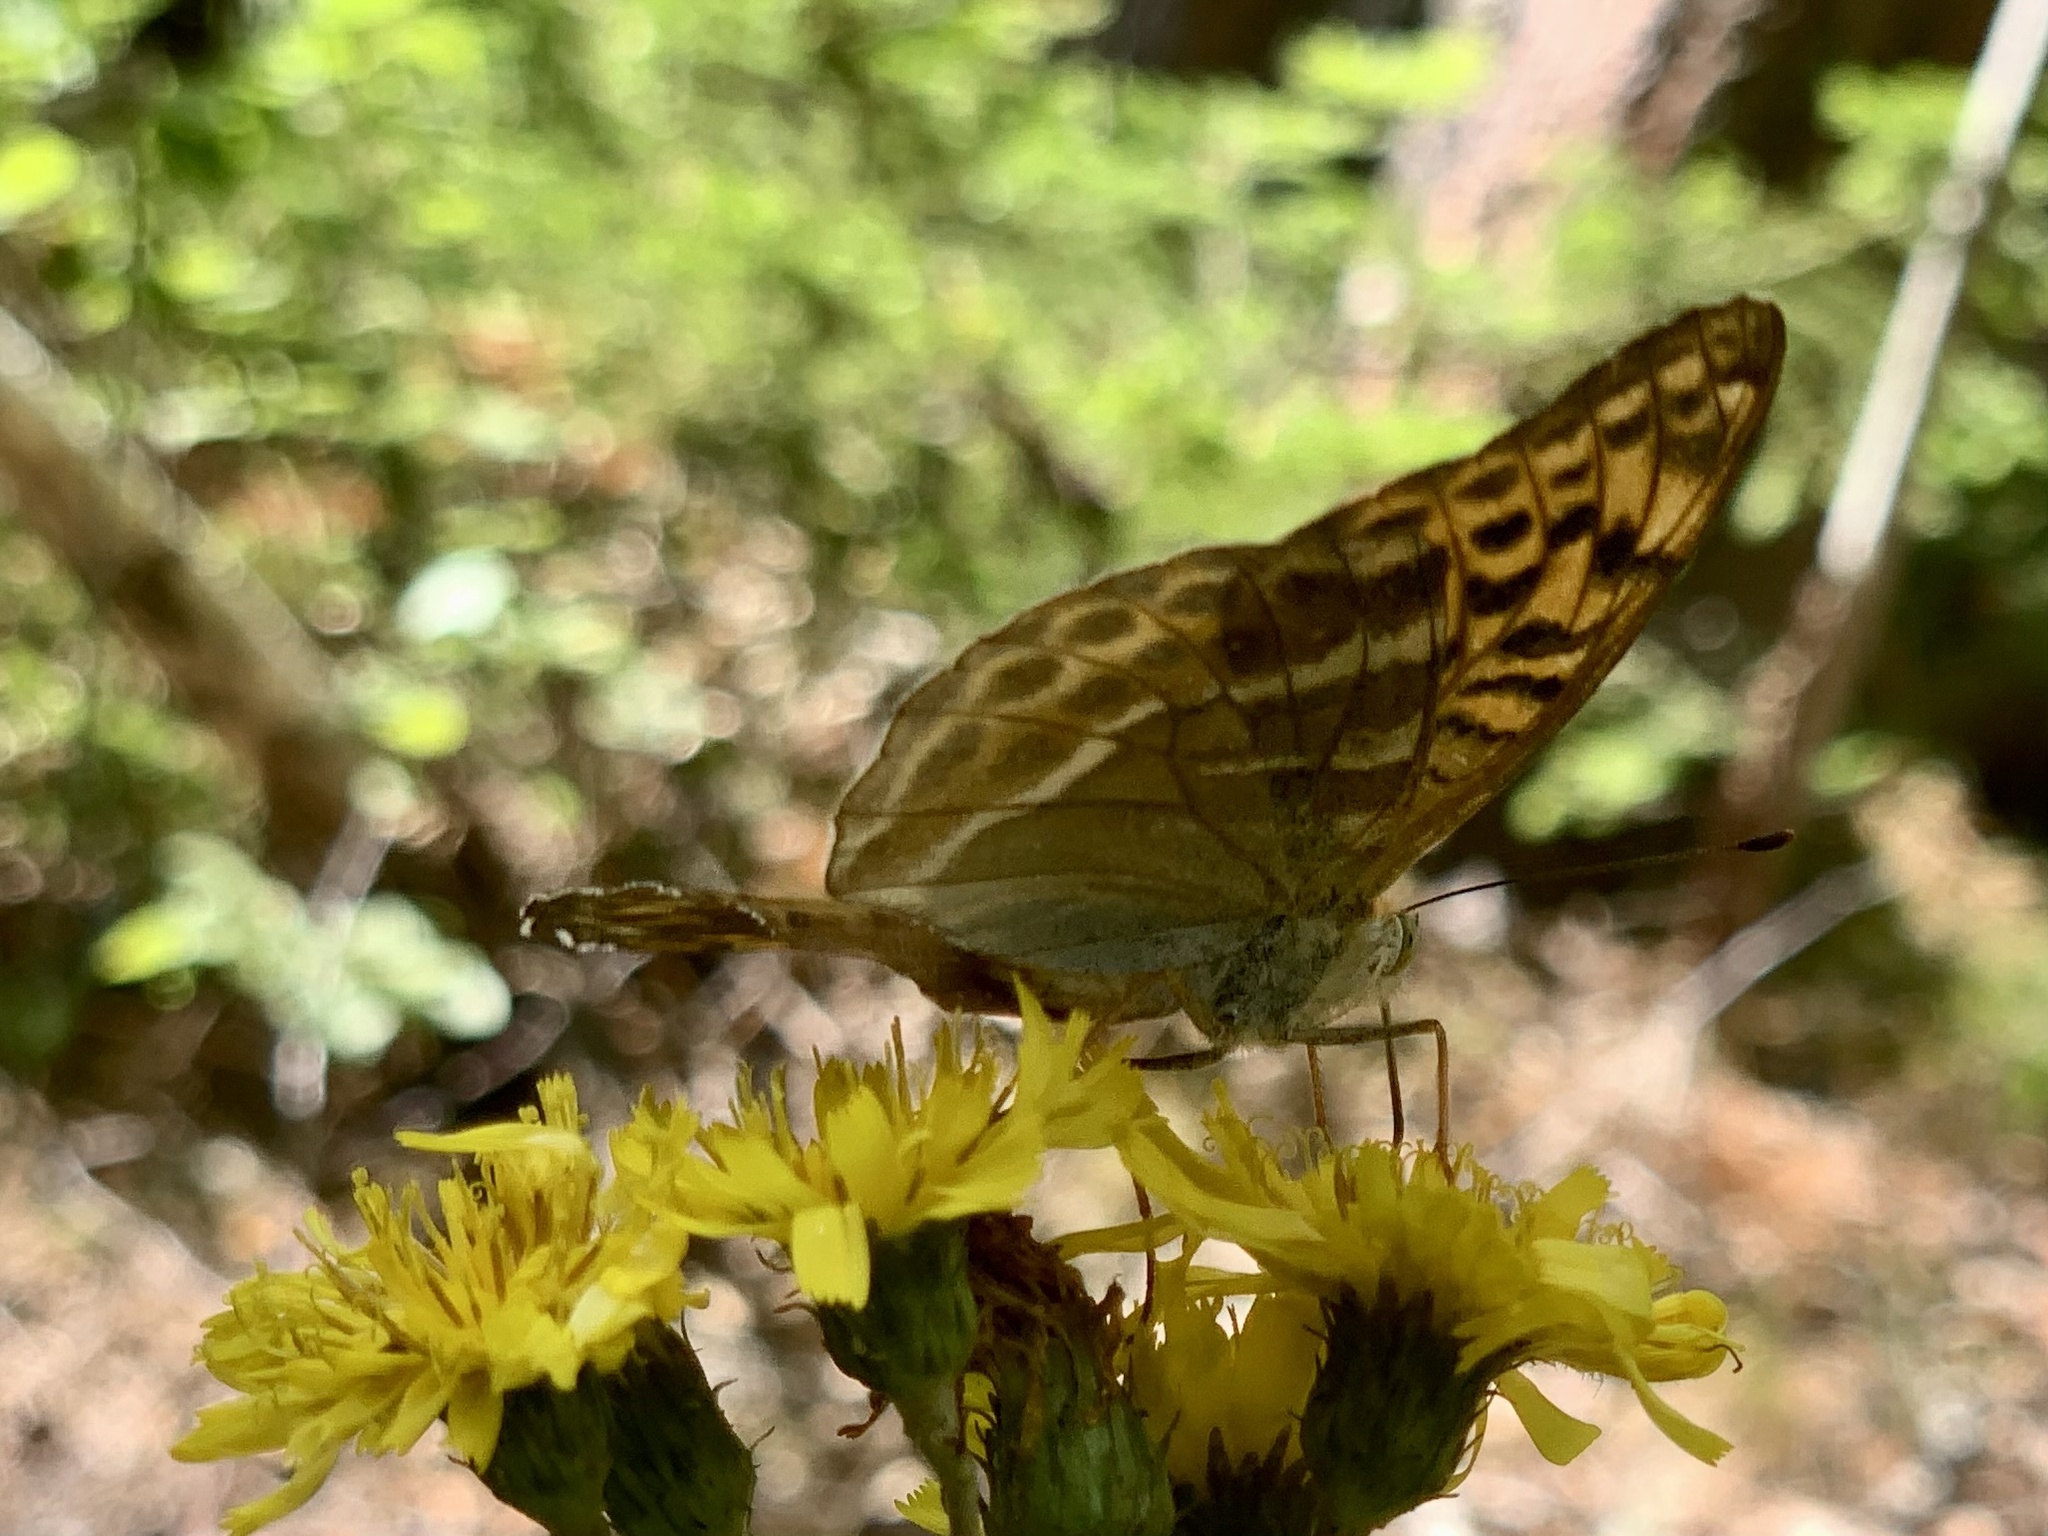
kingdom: Animalia
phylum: Arthropoda
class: Insecta
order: Lepidoptera
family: Nymphalidae
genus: Argynnis
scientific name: Argynnis paphia
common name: Silver-washed fritillary
